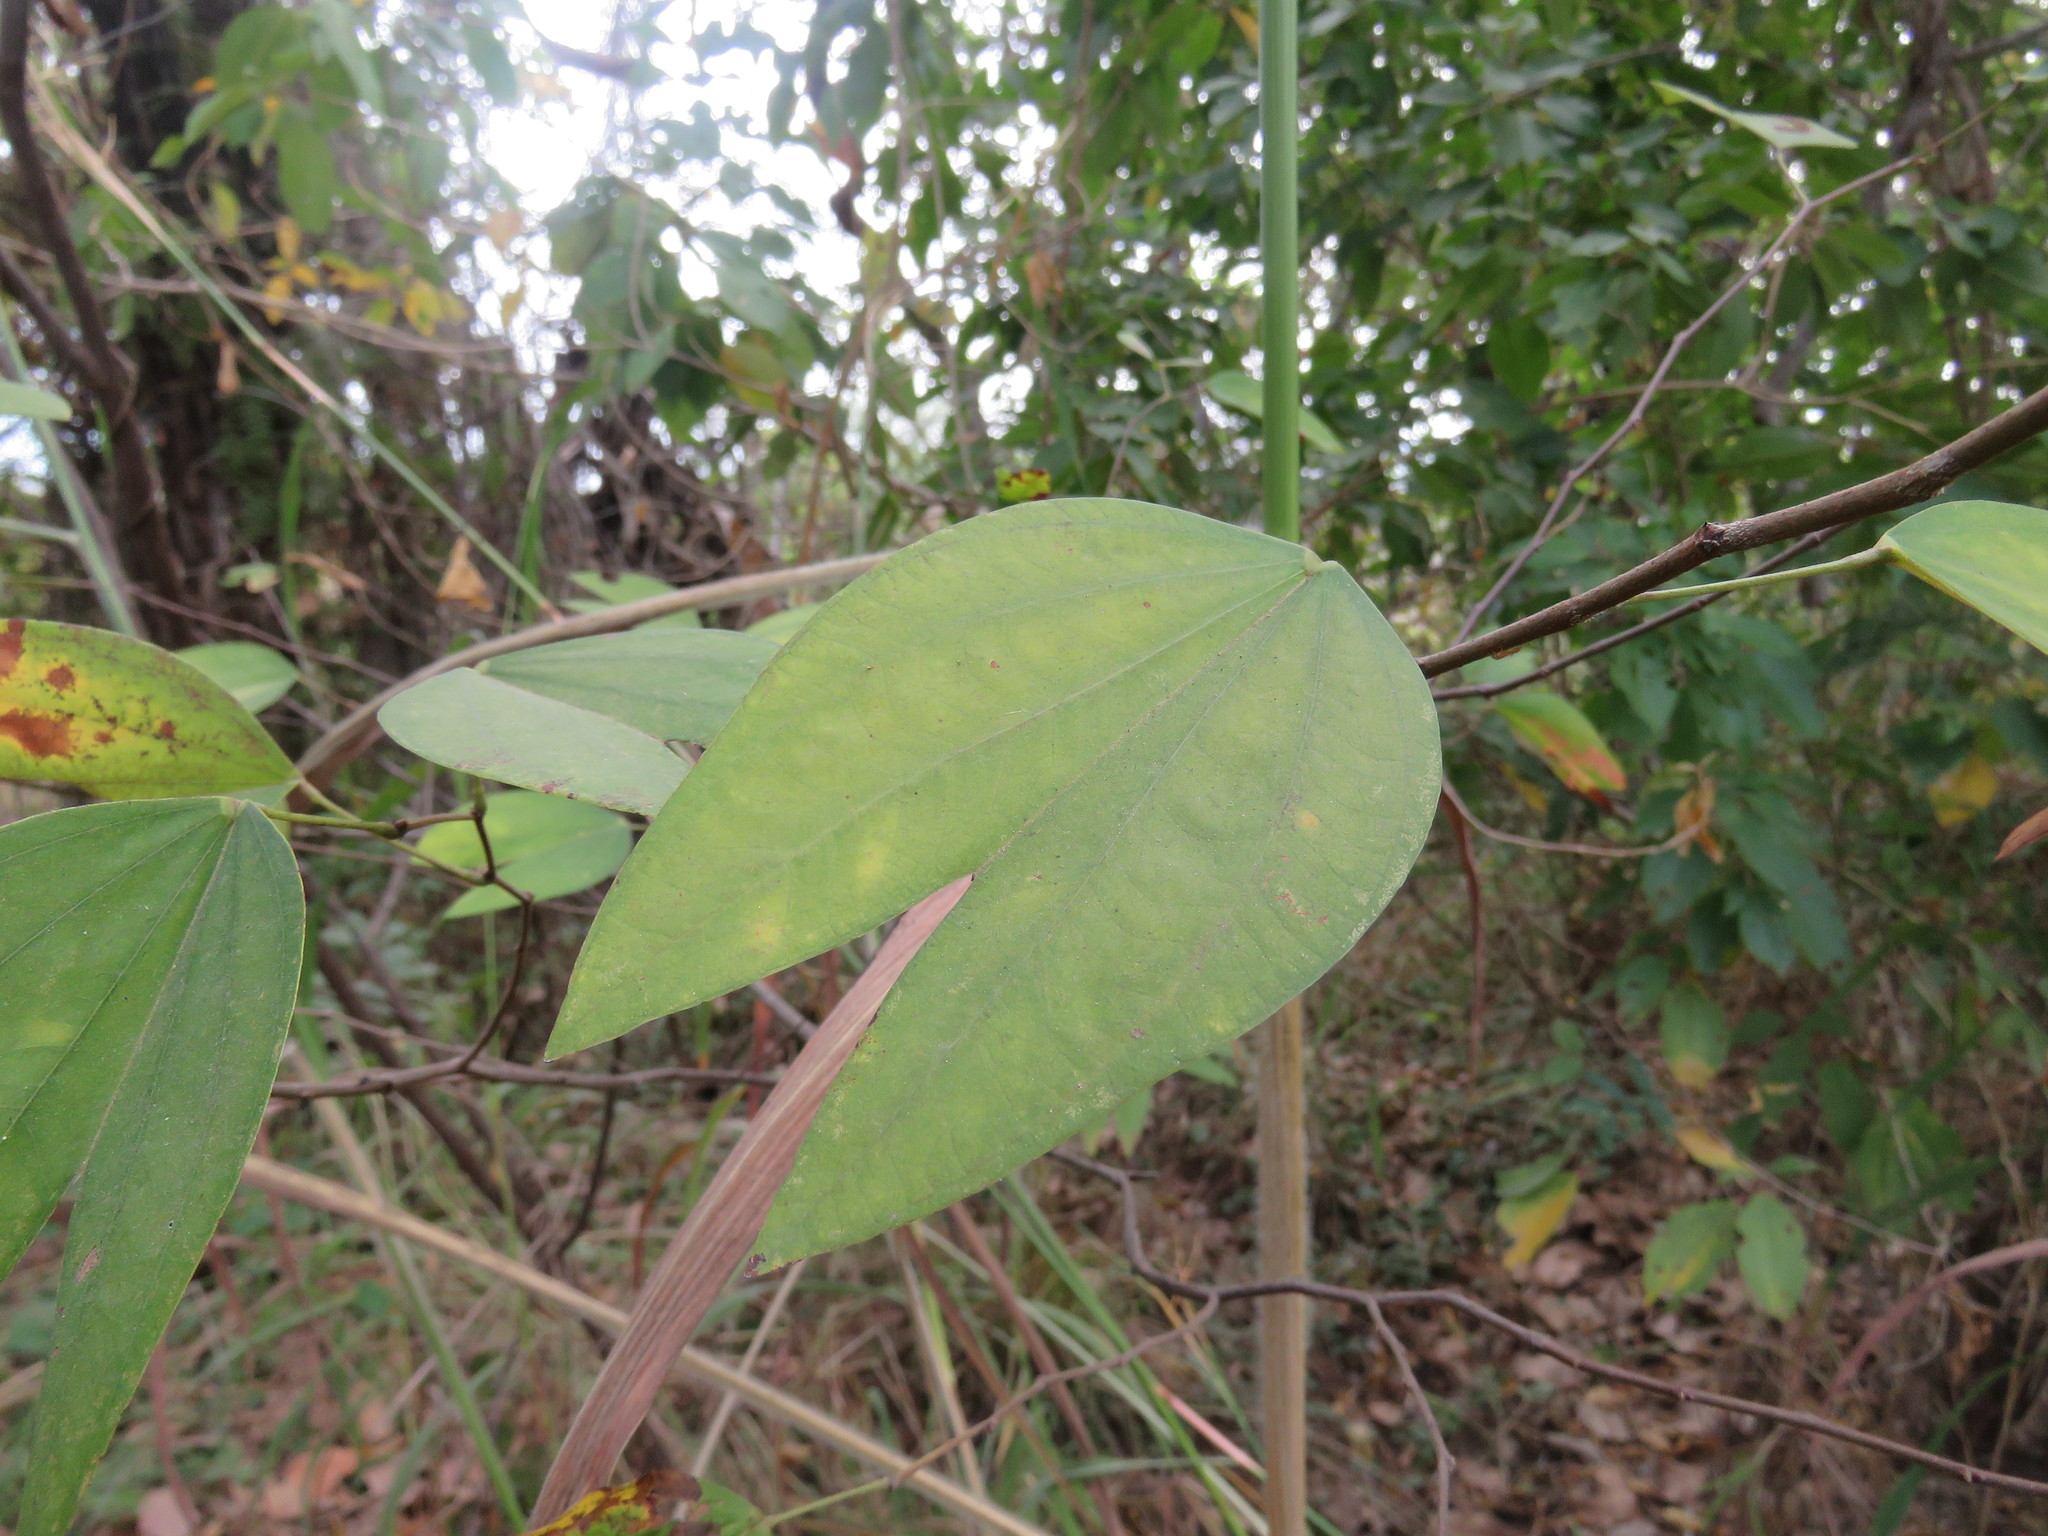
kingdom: Plantae
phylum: Tracheophyta
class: Magnoliopsida
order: Fabales
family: Fabaceae
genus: Bauhinia
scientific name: Bauhinia ungulata
